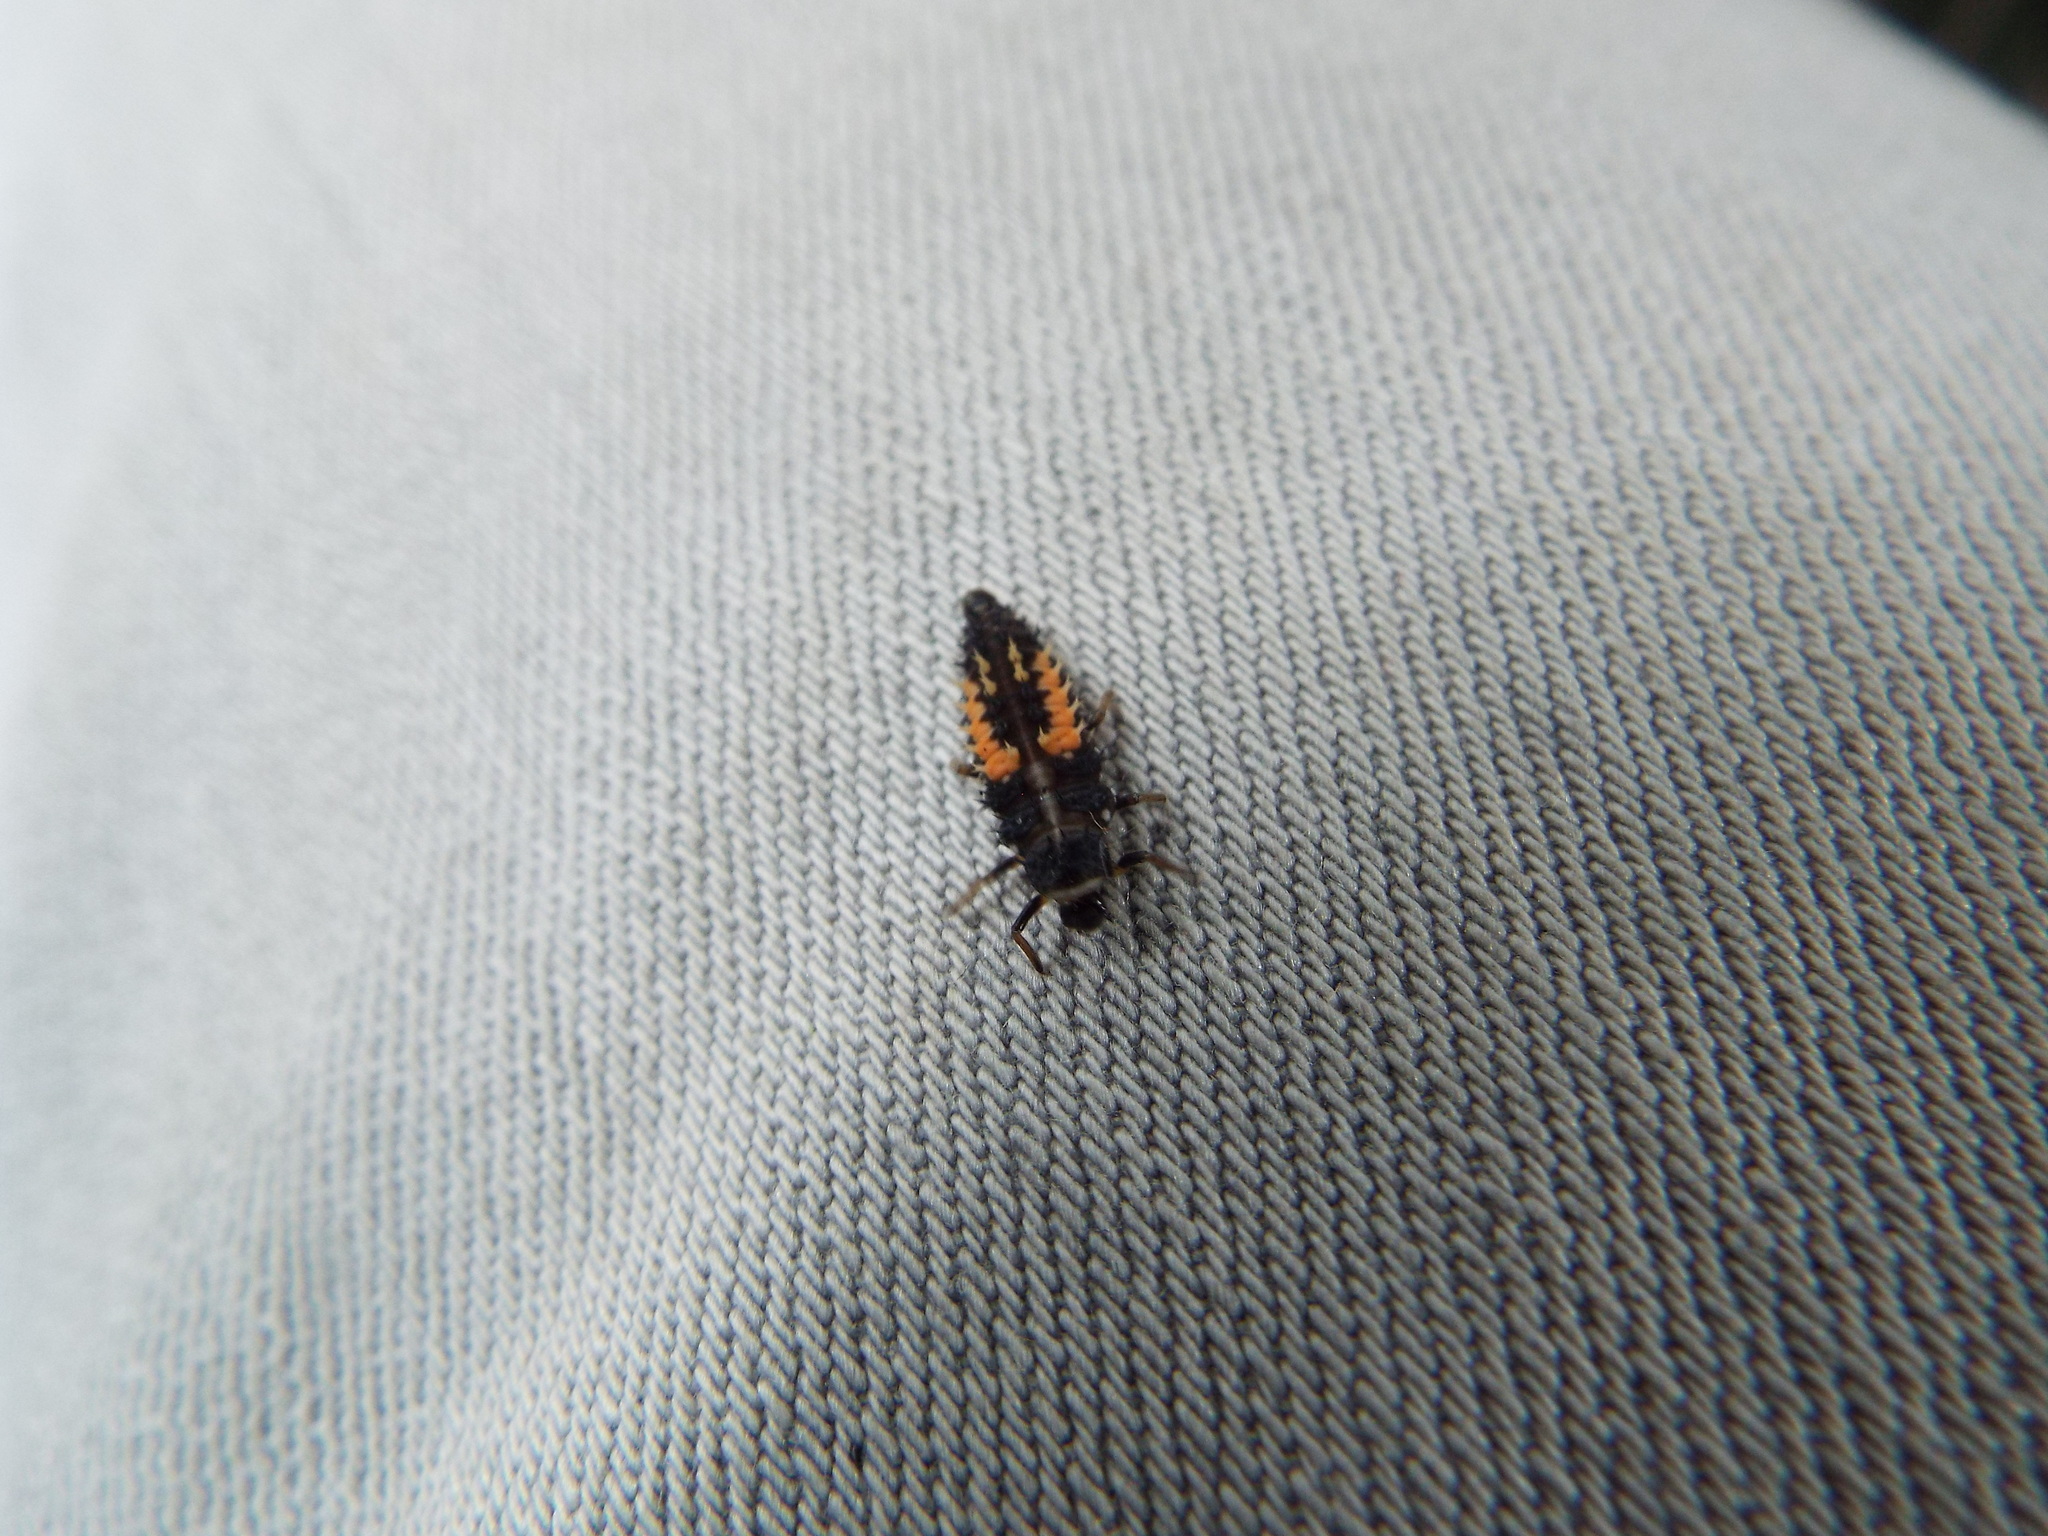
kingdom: Animalia
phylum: Arthropoda
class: Insecta
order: Coleoptera
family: Coccinellidae
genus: Harmonia
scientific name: Harmonia axyridis
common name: Harlequin ladybird
